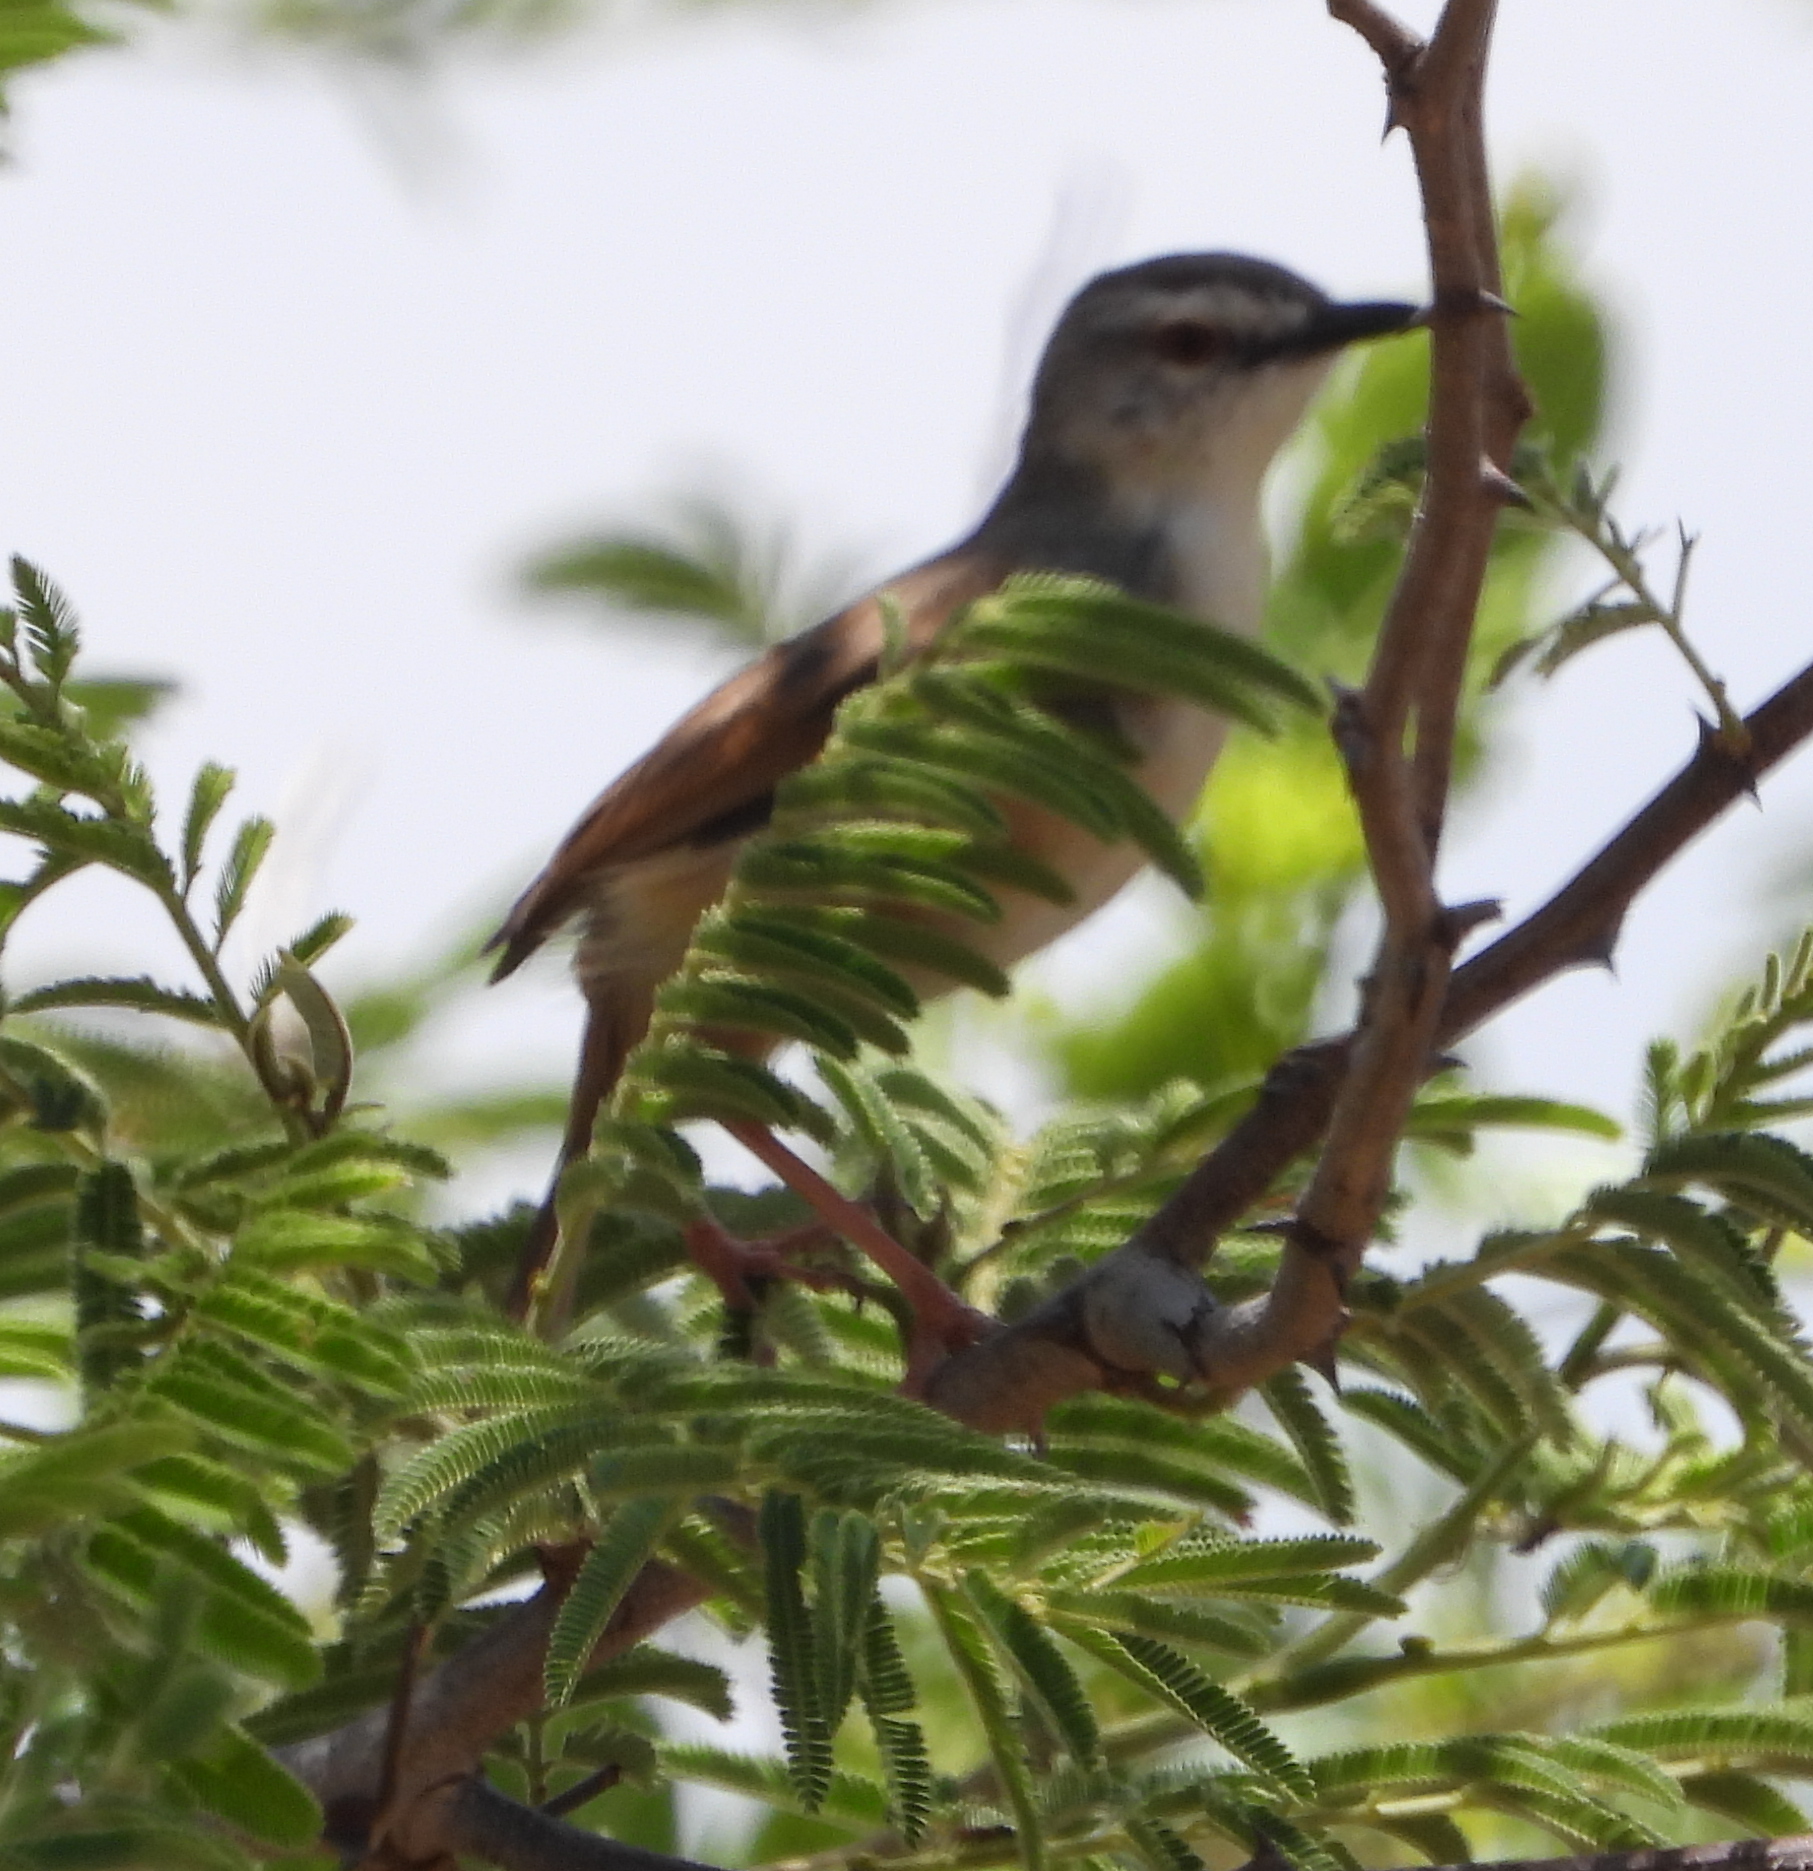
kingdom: Animalia
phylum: Chordata
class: Aves
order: Passeriformes
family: Cisticolidae
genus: Prinia
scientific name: Prinia subflava
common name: Tawny-flanked prinia
